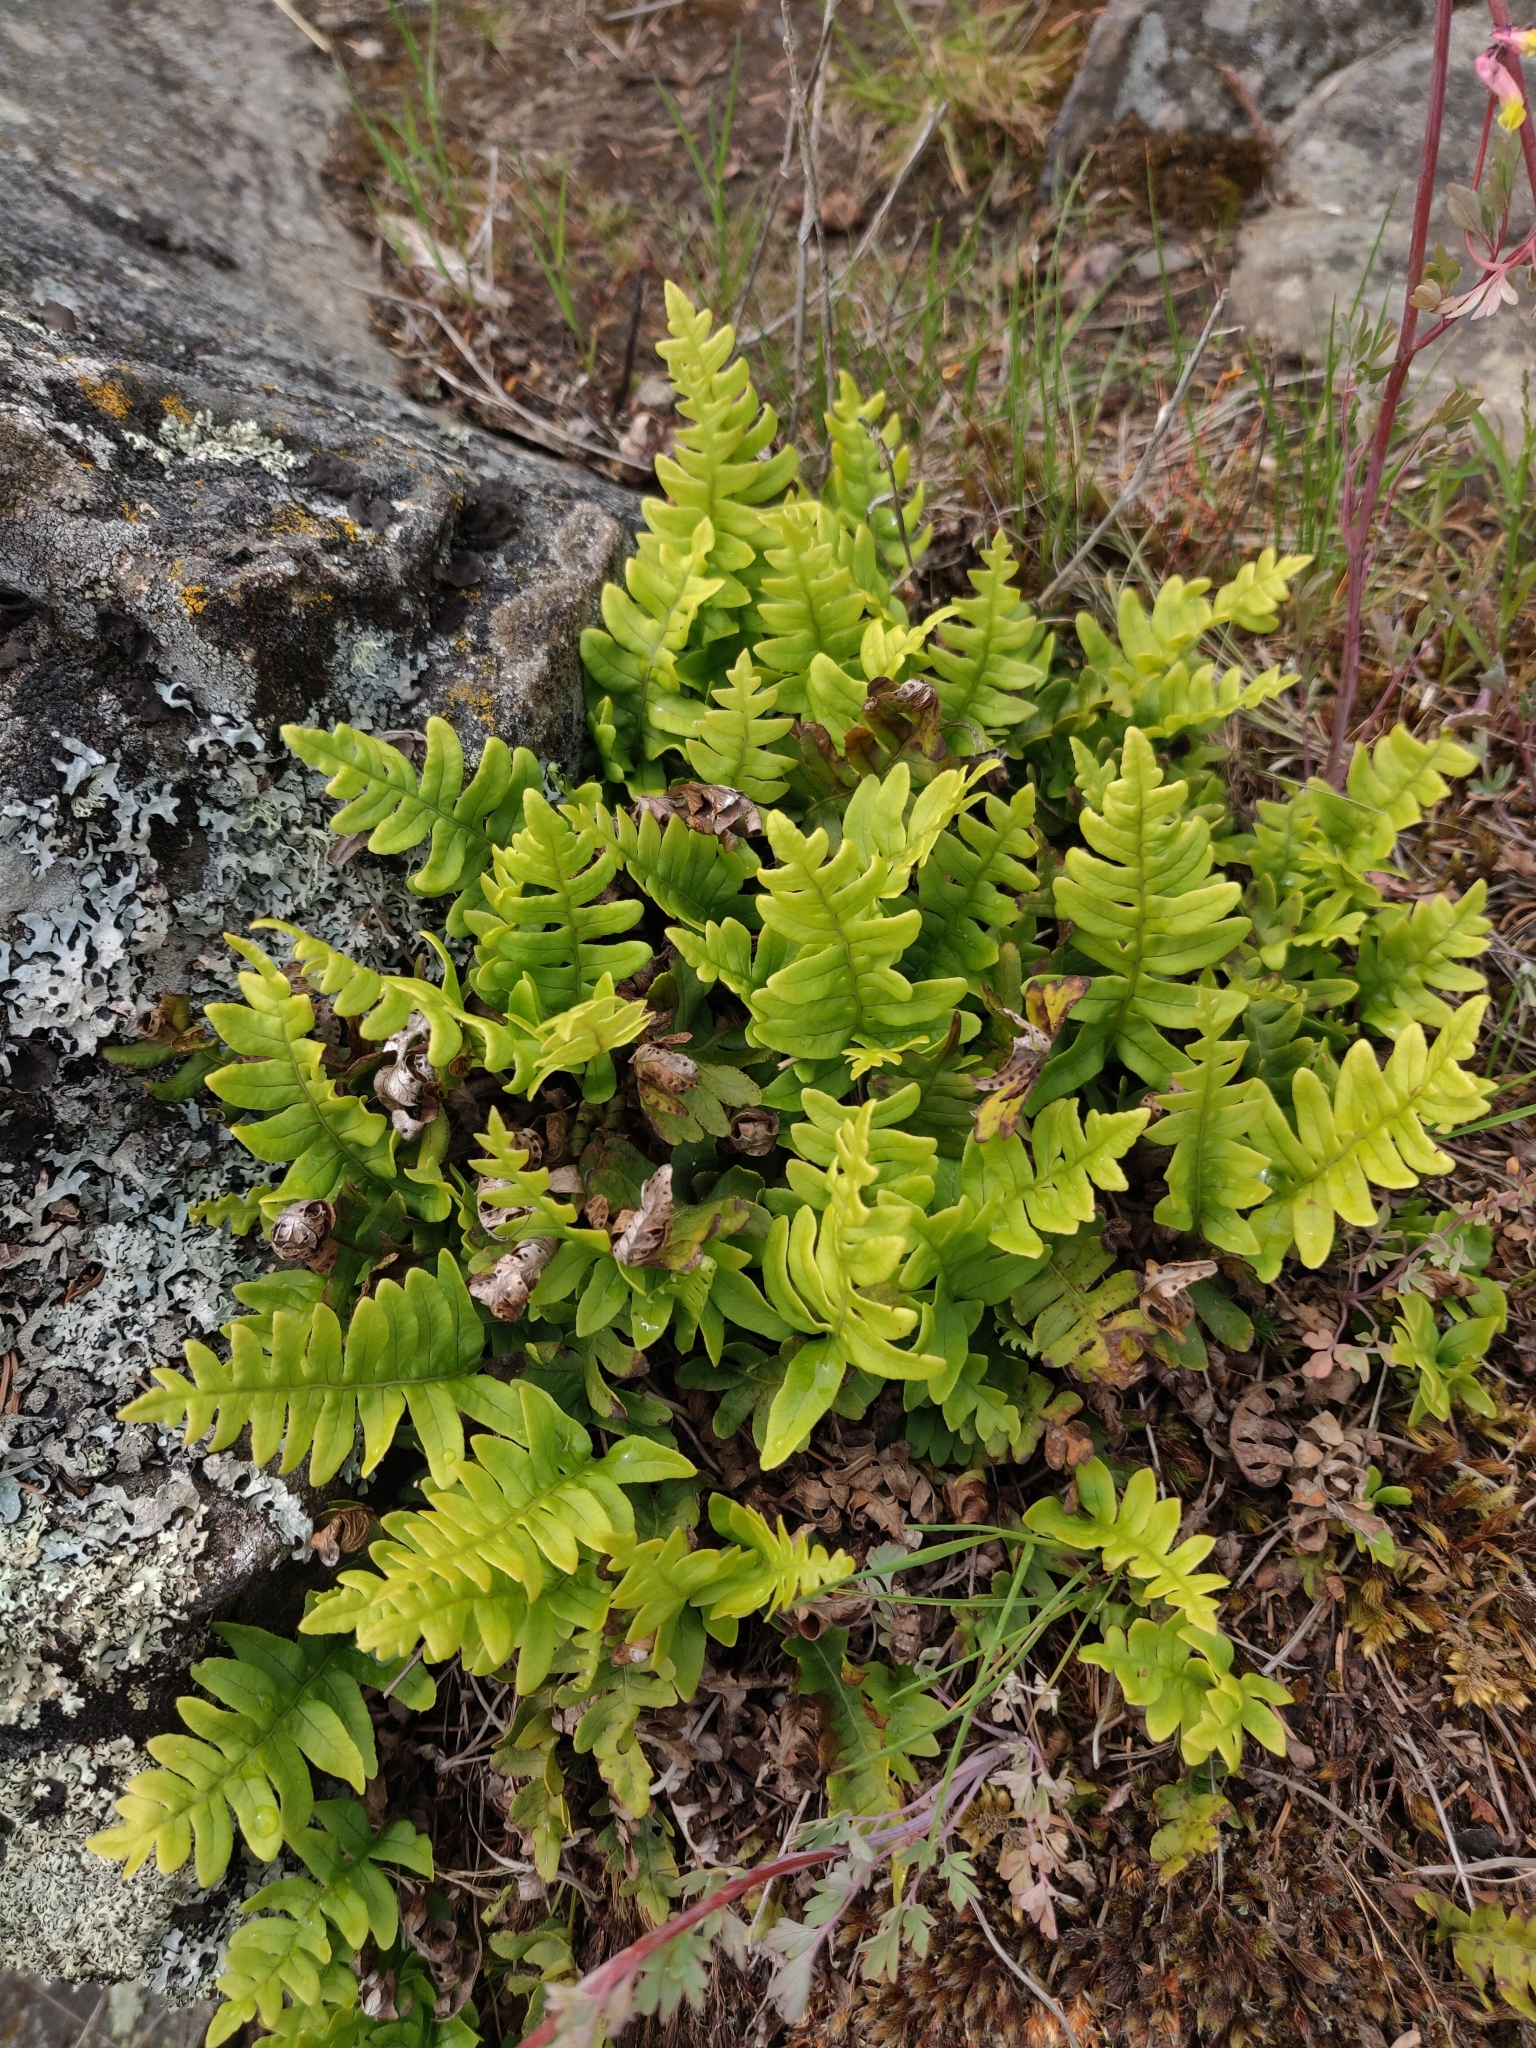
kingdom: Plantae
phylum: Tracheophyta
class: Polypodiopsida
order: Polypodiales
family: Polypodiaceae
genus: Polypodium
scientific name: Polypodium virginianum
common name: American wall fern
